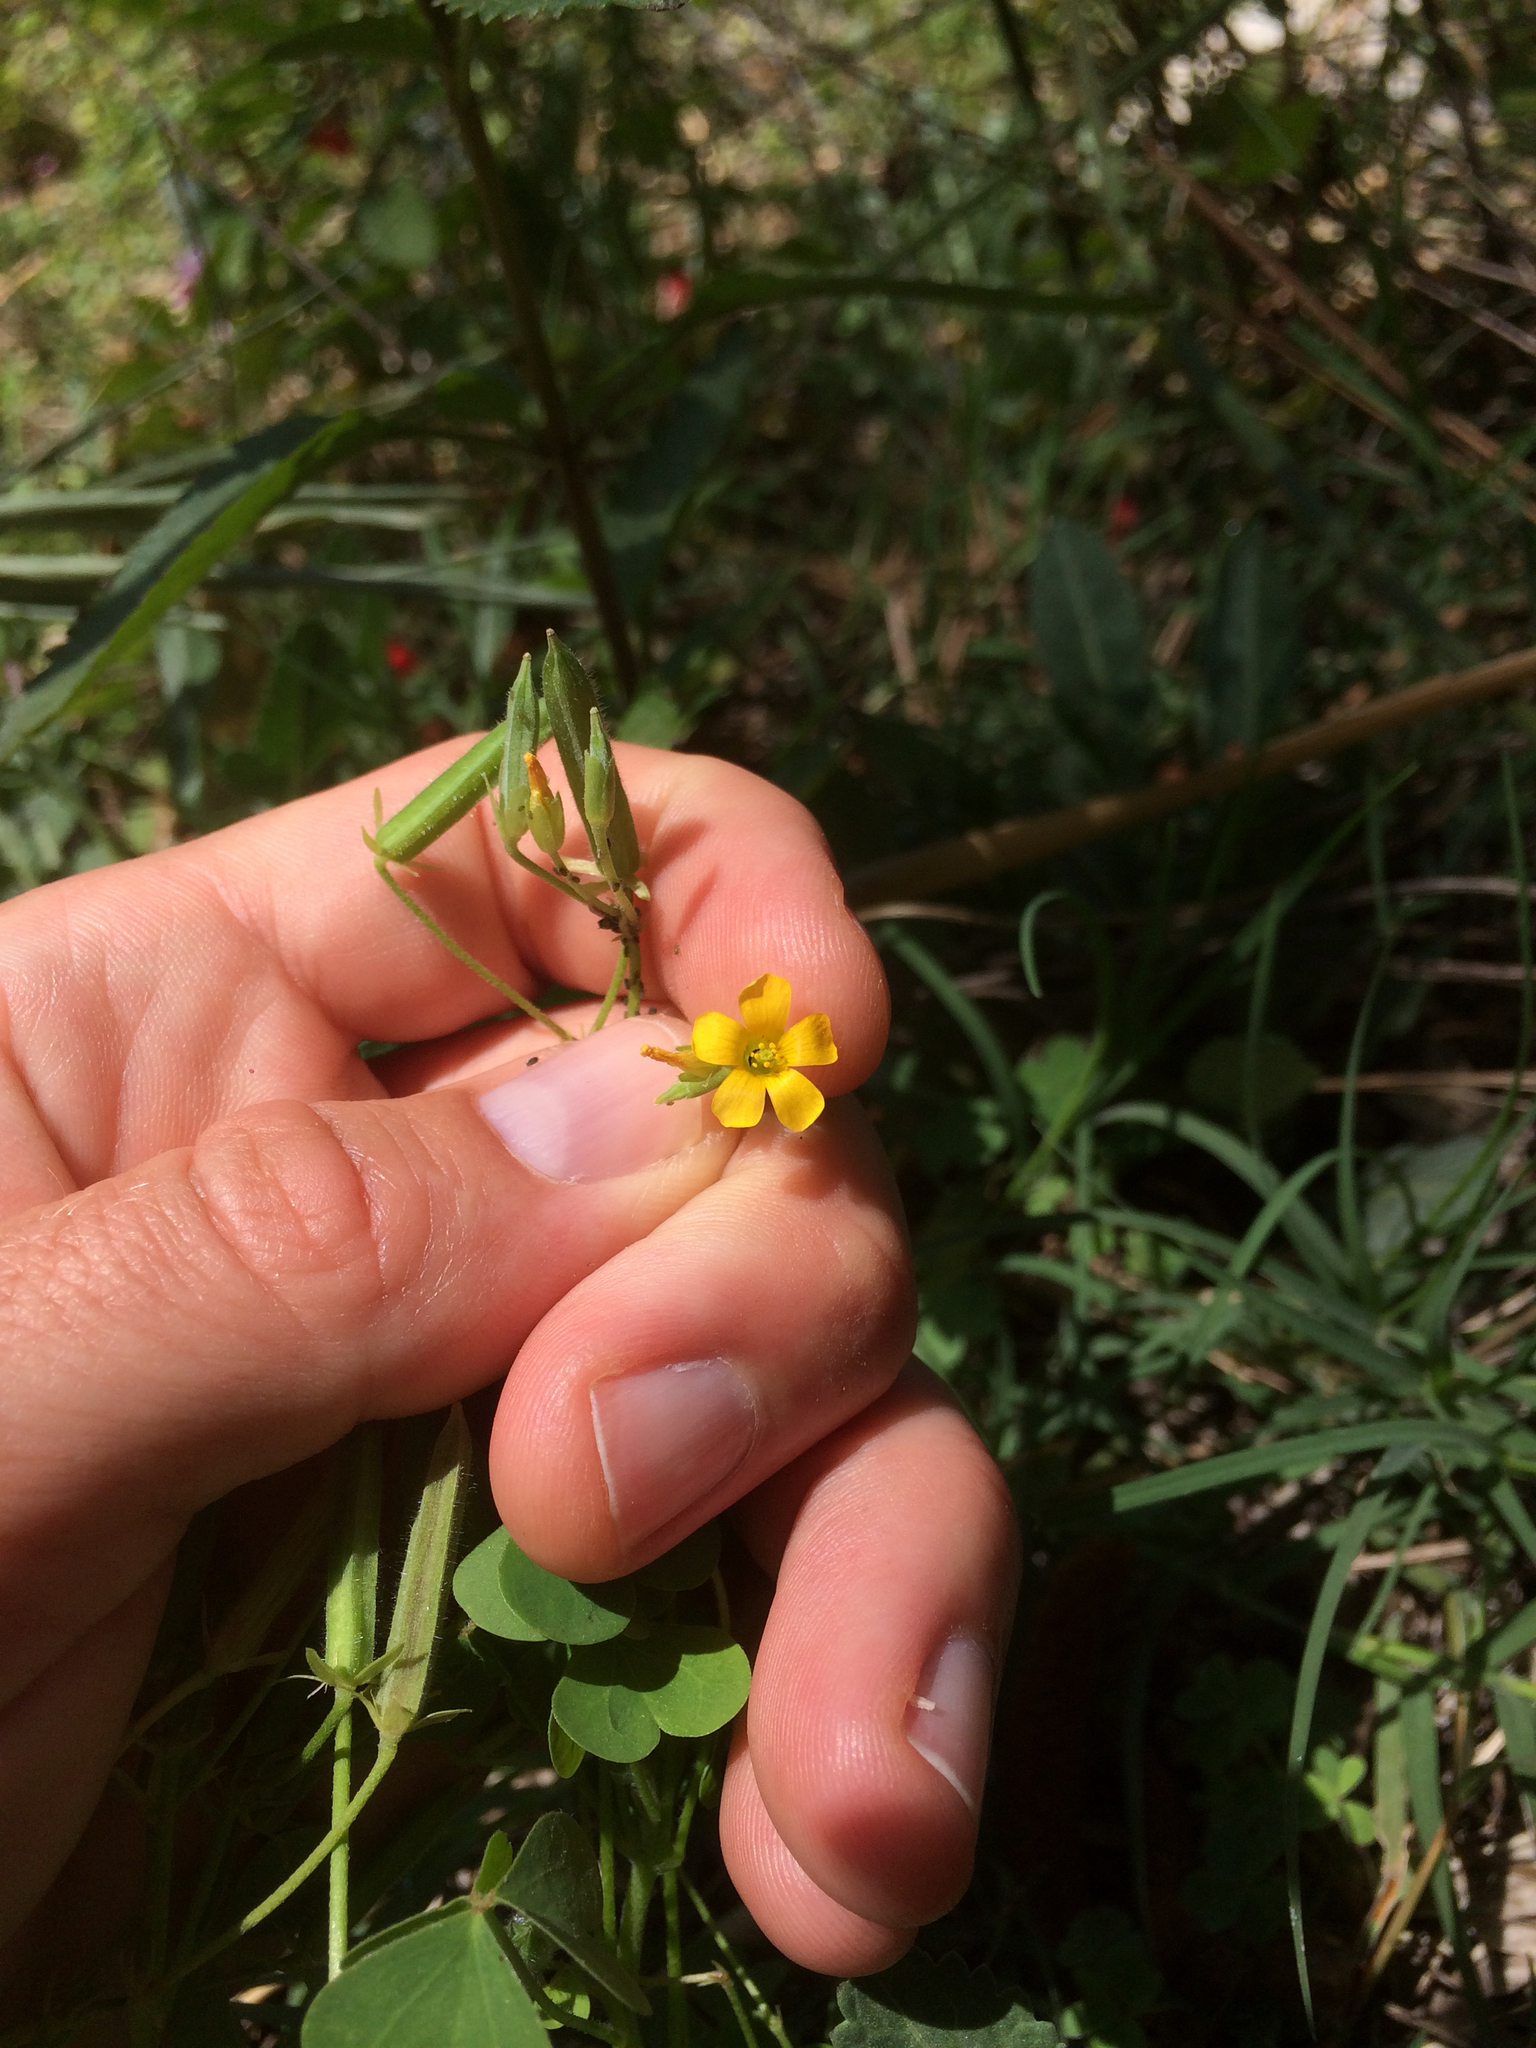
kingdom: Plantae
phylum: Tracheophyta
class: Magnoliopsida
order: Oxalidales
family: Oxalidaceae
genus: Oxalis
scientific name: Oxalis corniculata
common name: Procumbent yellow-sorrel
